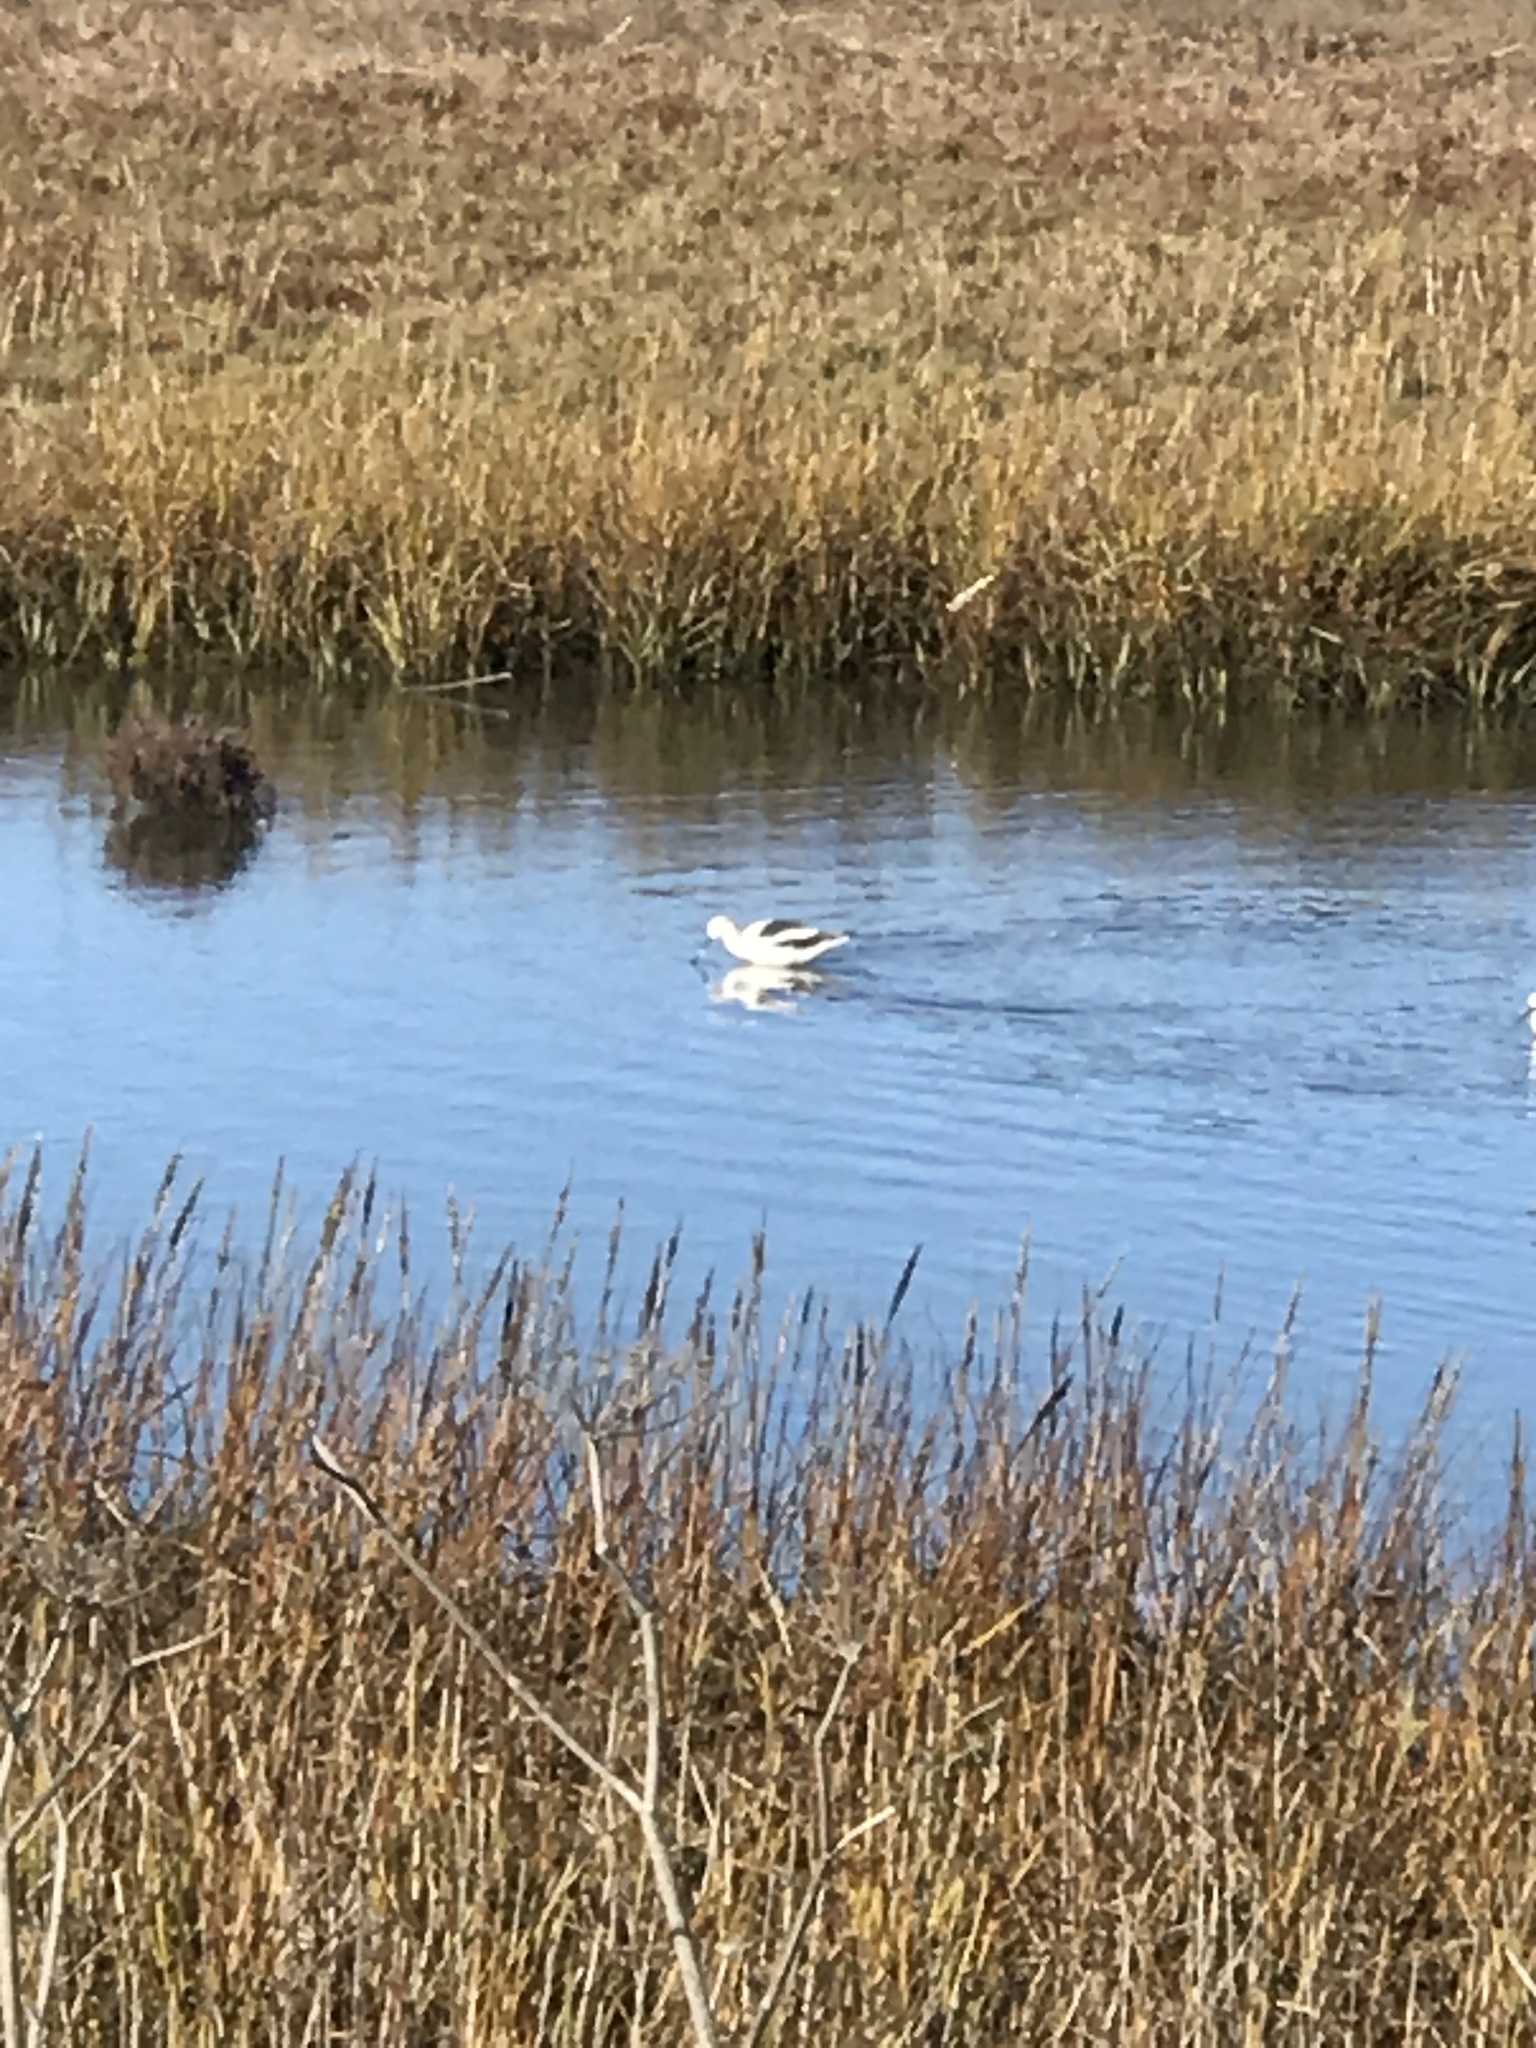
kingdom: Animalia
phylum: Chordata
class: Aves
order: Charadriiformes
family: Recurvirostridae
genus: Recurvirostra
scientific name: Recurvirostra americana
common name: American avocet
